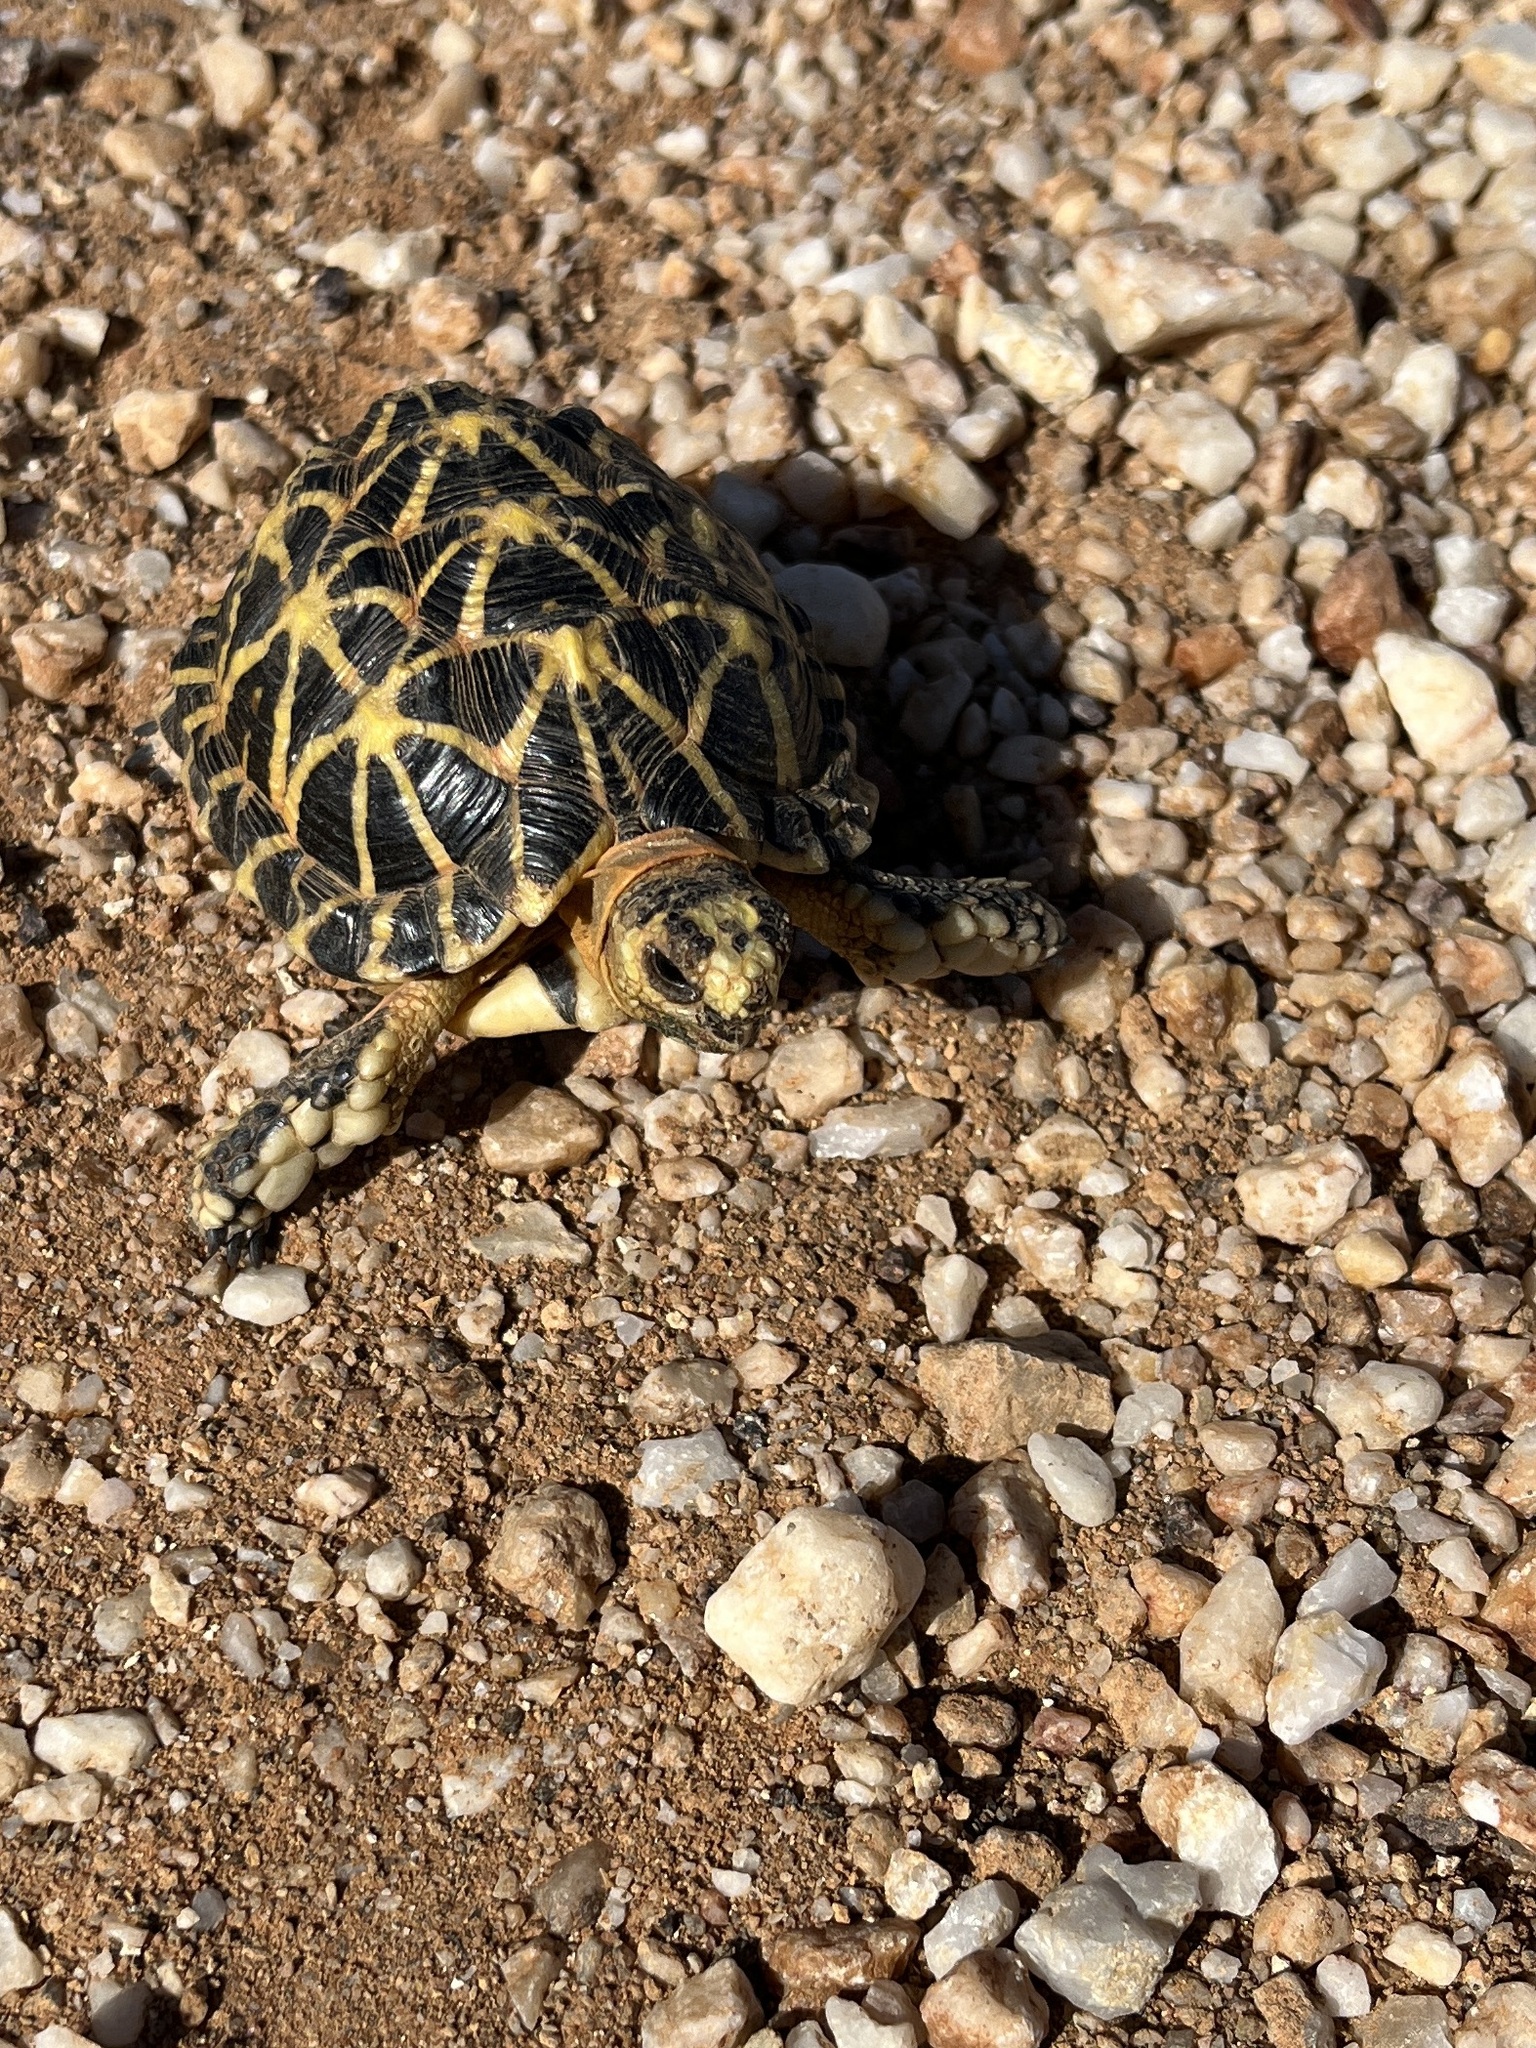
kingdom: Animalia
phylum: Chordata
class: Testudines
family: Testudinidae
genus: Psammobates
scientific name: Psammobates tentorius
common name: Tent tortoise
